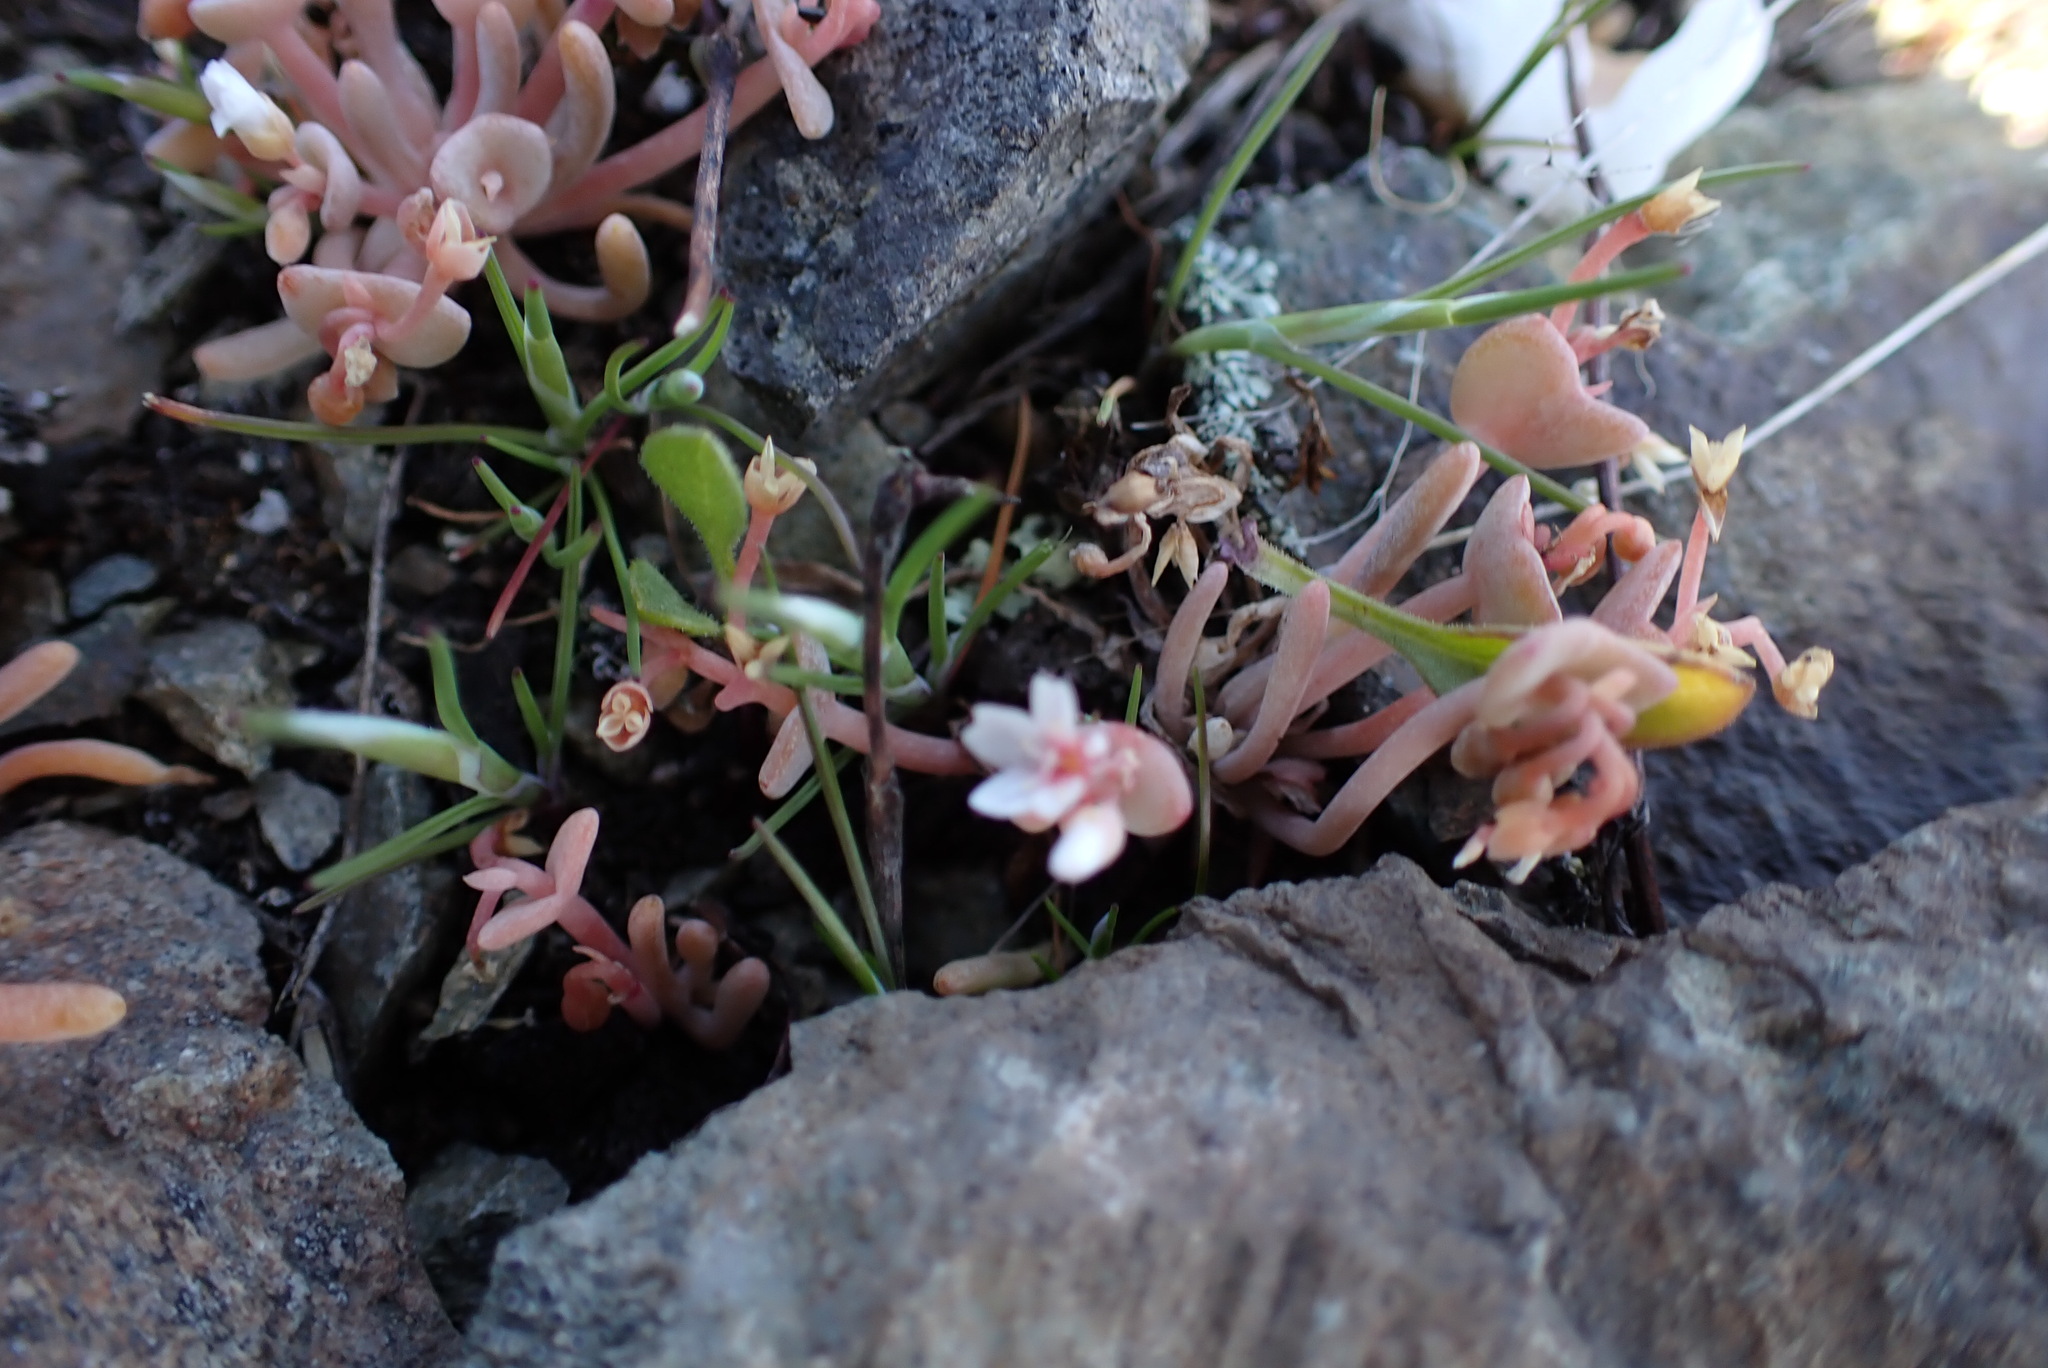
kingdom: Plantae
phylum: Tracheophyta
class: Magnoliopsida
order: Caryophyllales
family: Montiaceae
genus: Claytonia
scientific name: Claytonia exigua
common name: Pale spring beauty
